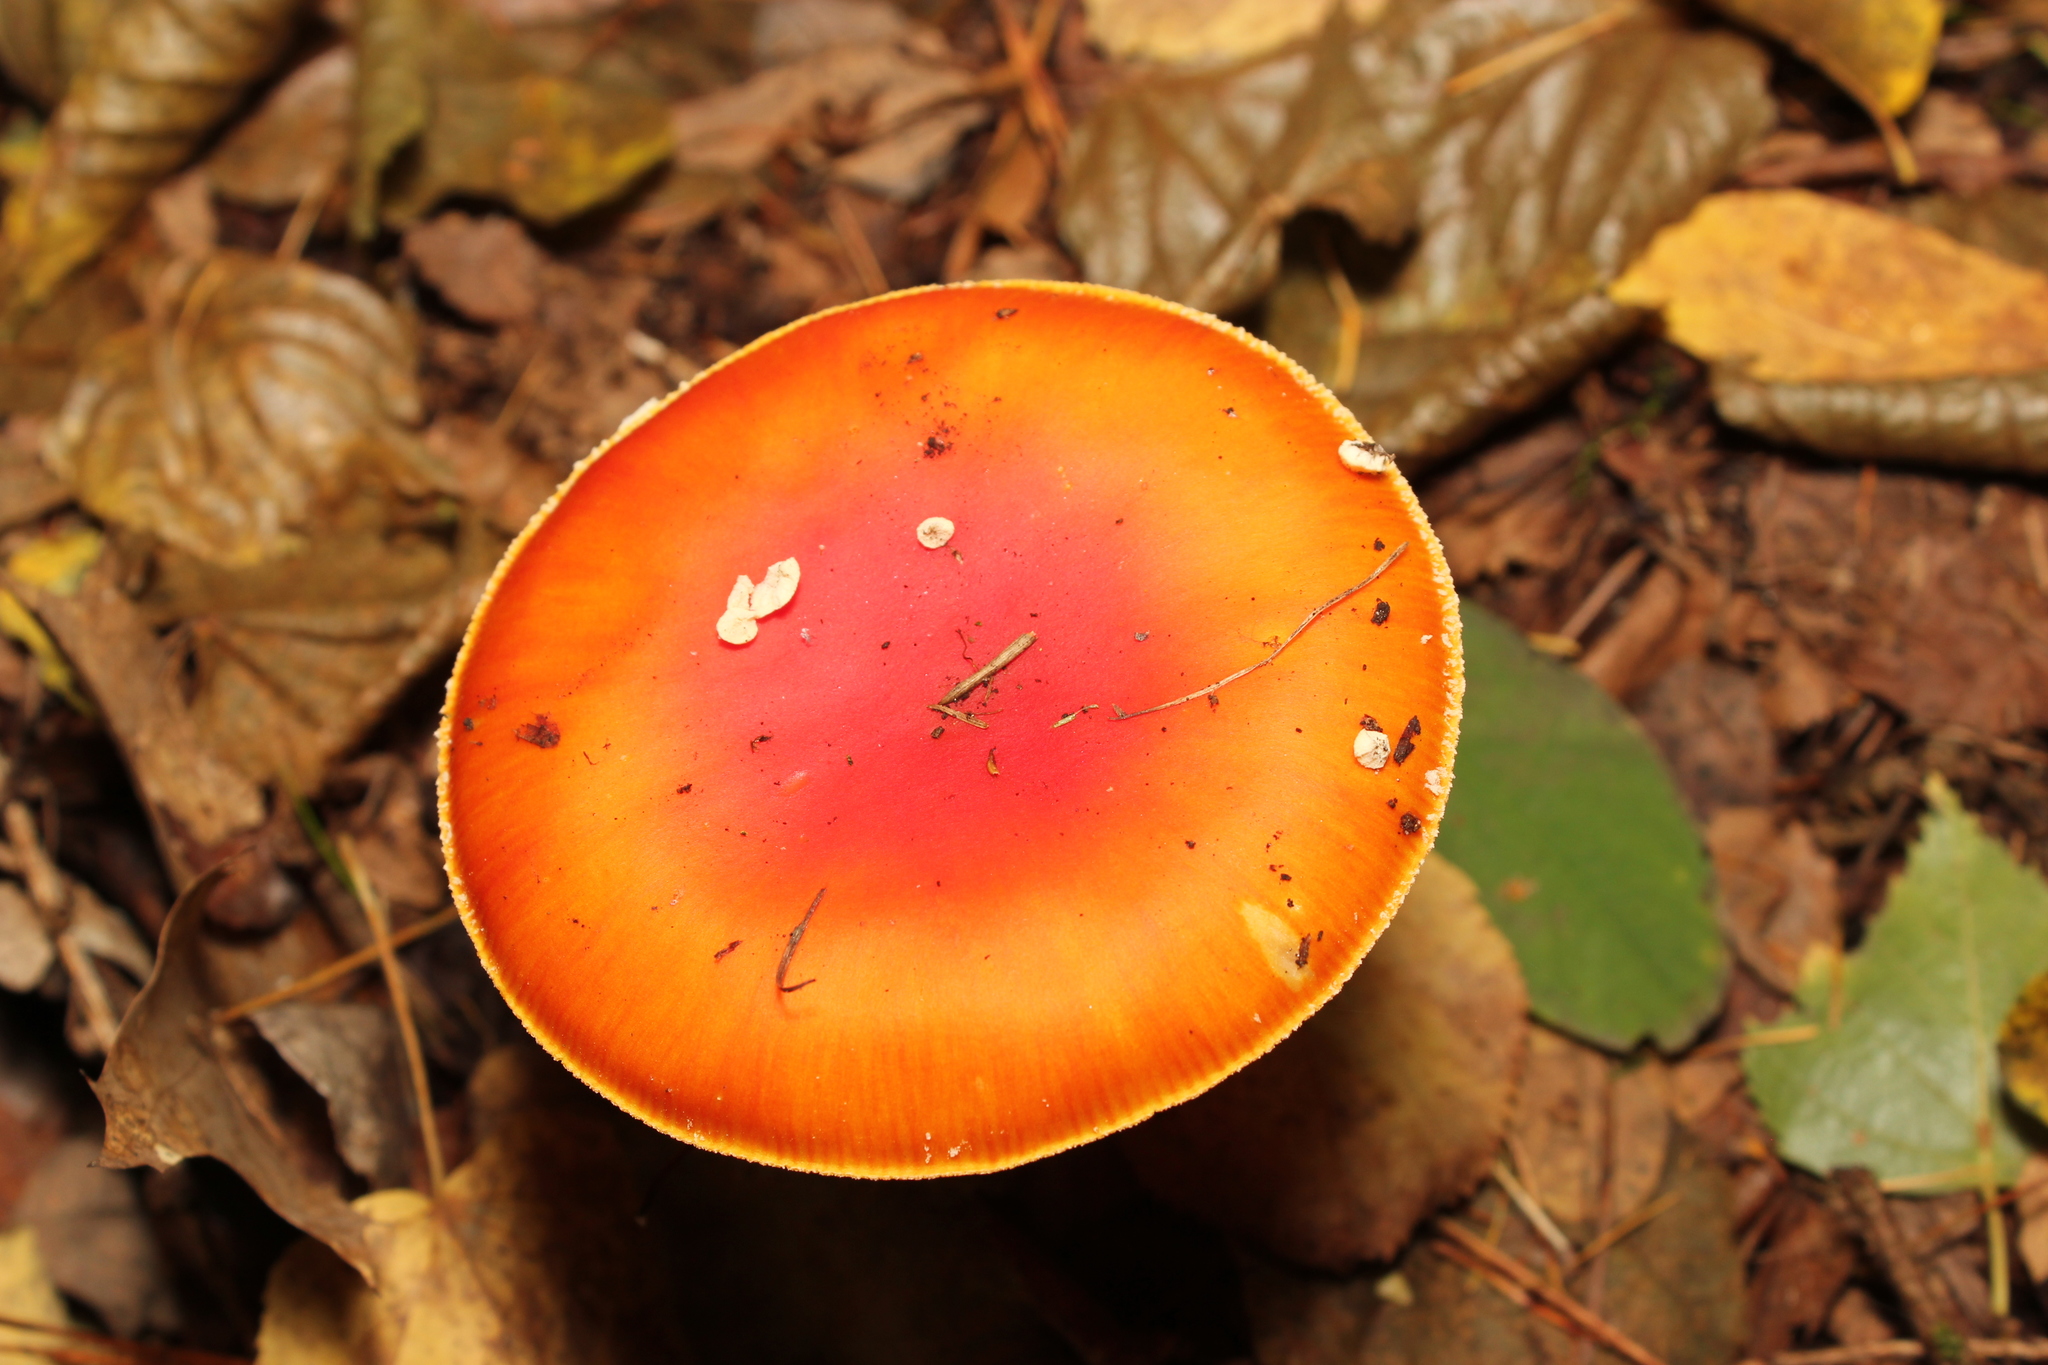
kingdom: Fungi
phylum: Basidiomycota
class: Agaricomycetes
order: Agaricales
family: Amanitaceae
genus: Amanita
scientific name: Amanita muscaria
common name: Fly agaric
